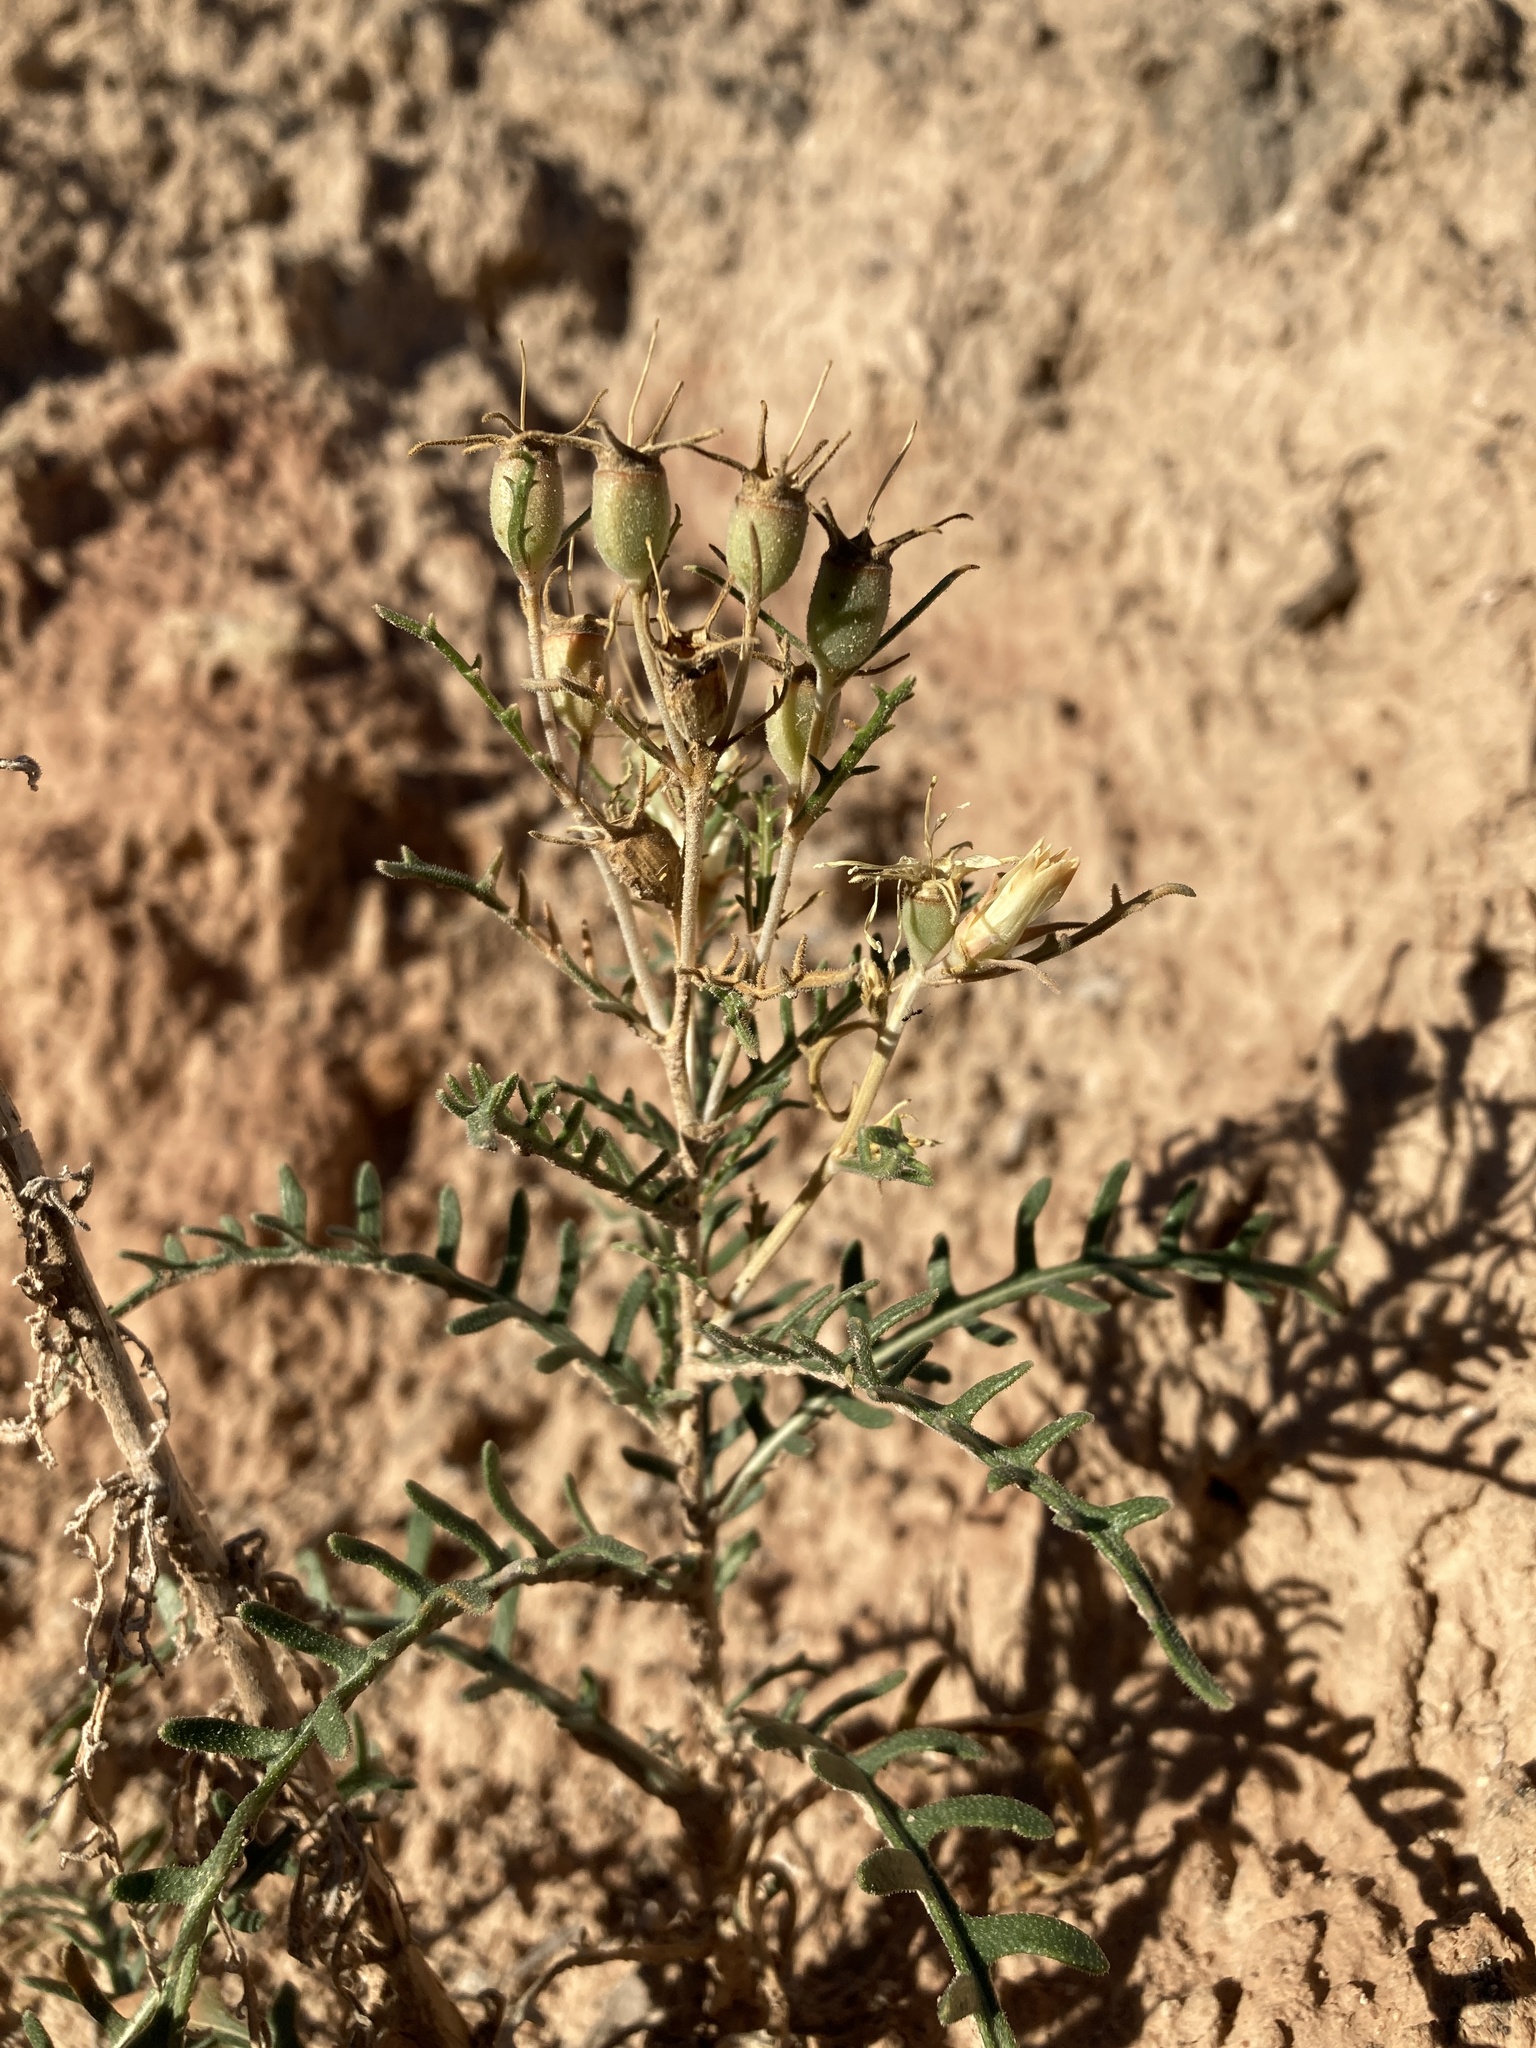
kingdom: Plantae
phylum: Tracheophyta
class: Magnoliopsida
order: Cornales
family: Loasaceae
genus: Mentzelia
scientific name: Mentzelia humilis
